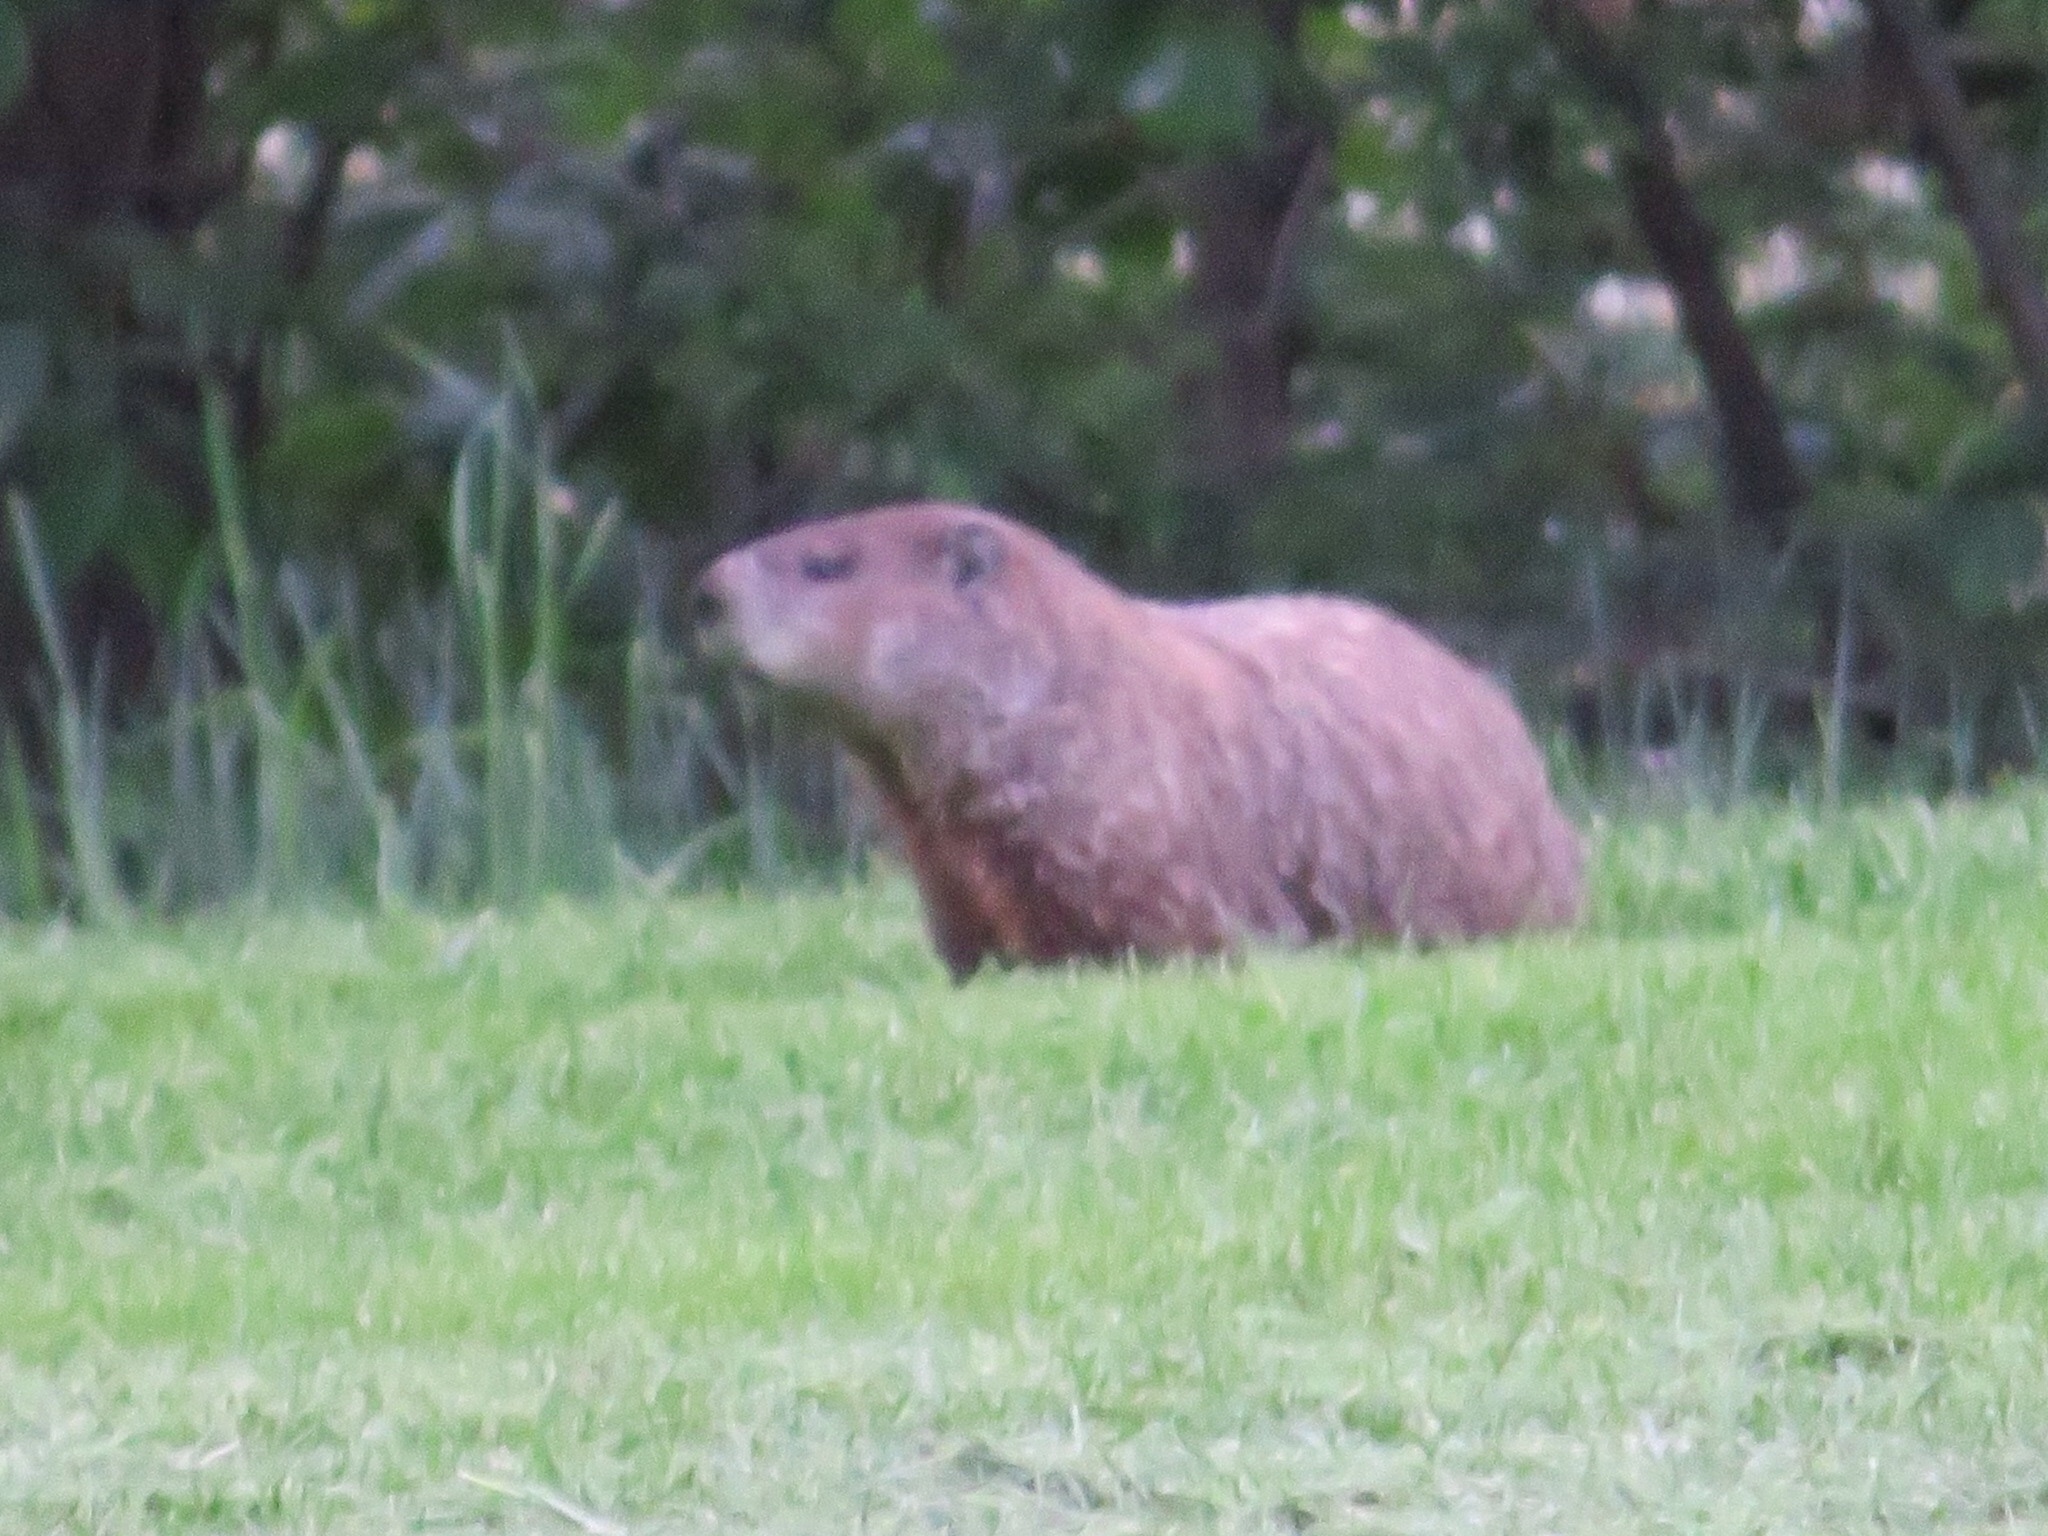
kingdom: Animalia
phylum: Chordata
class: Mammalia
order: Rodentia
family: Sciuridae
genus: Marmota
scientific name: Marmota monax
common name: Groundhog
